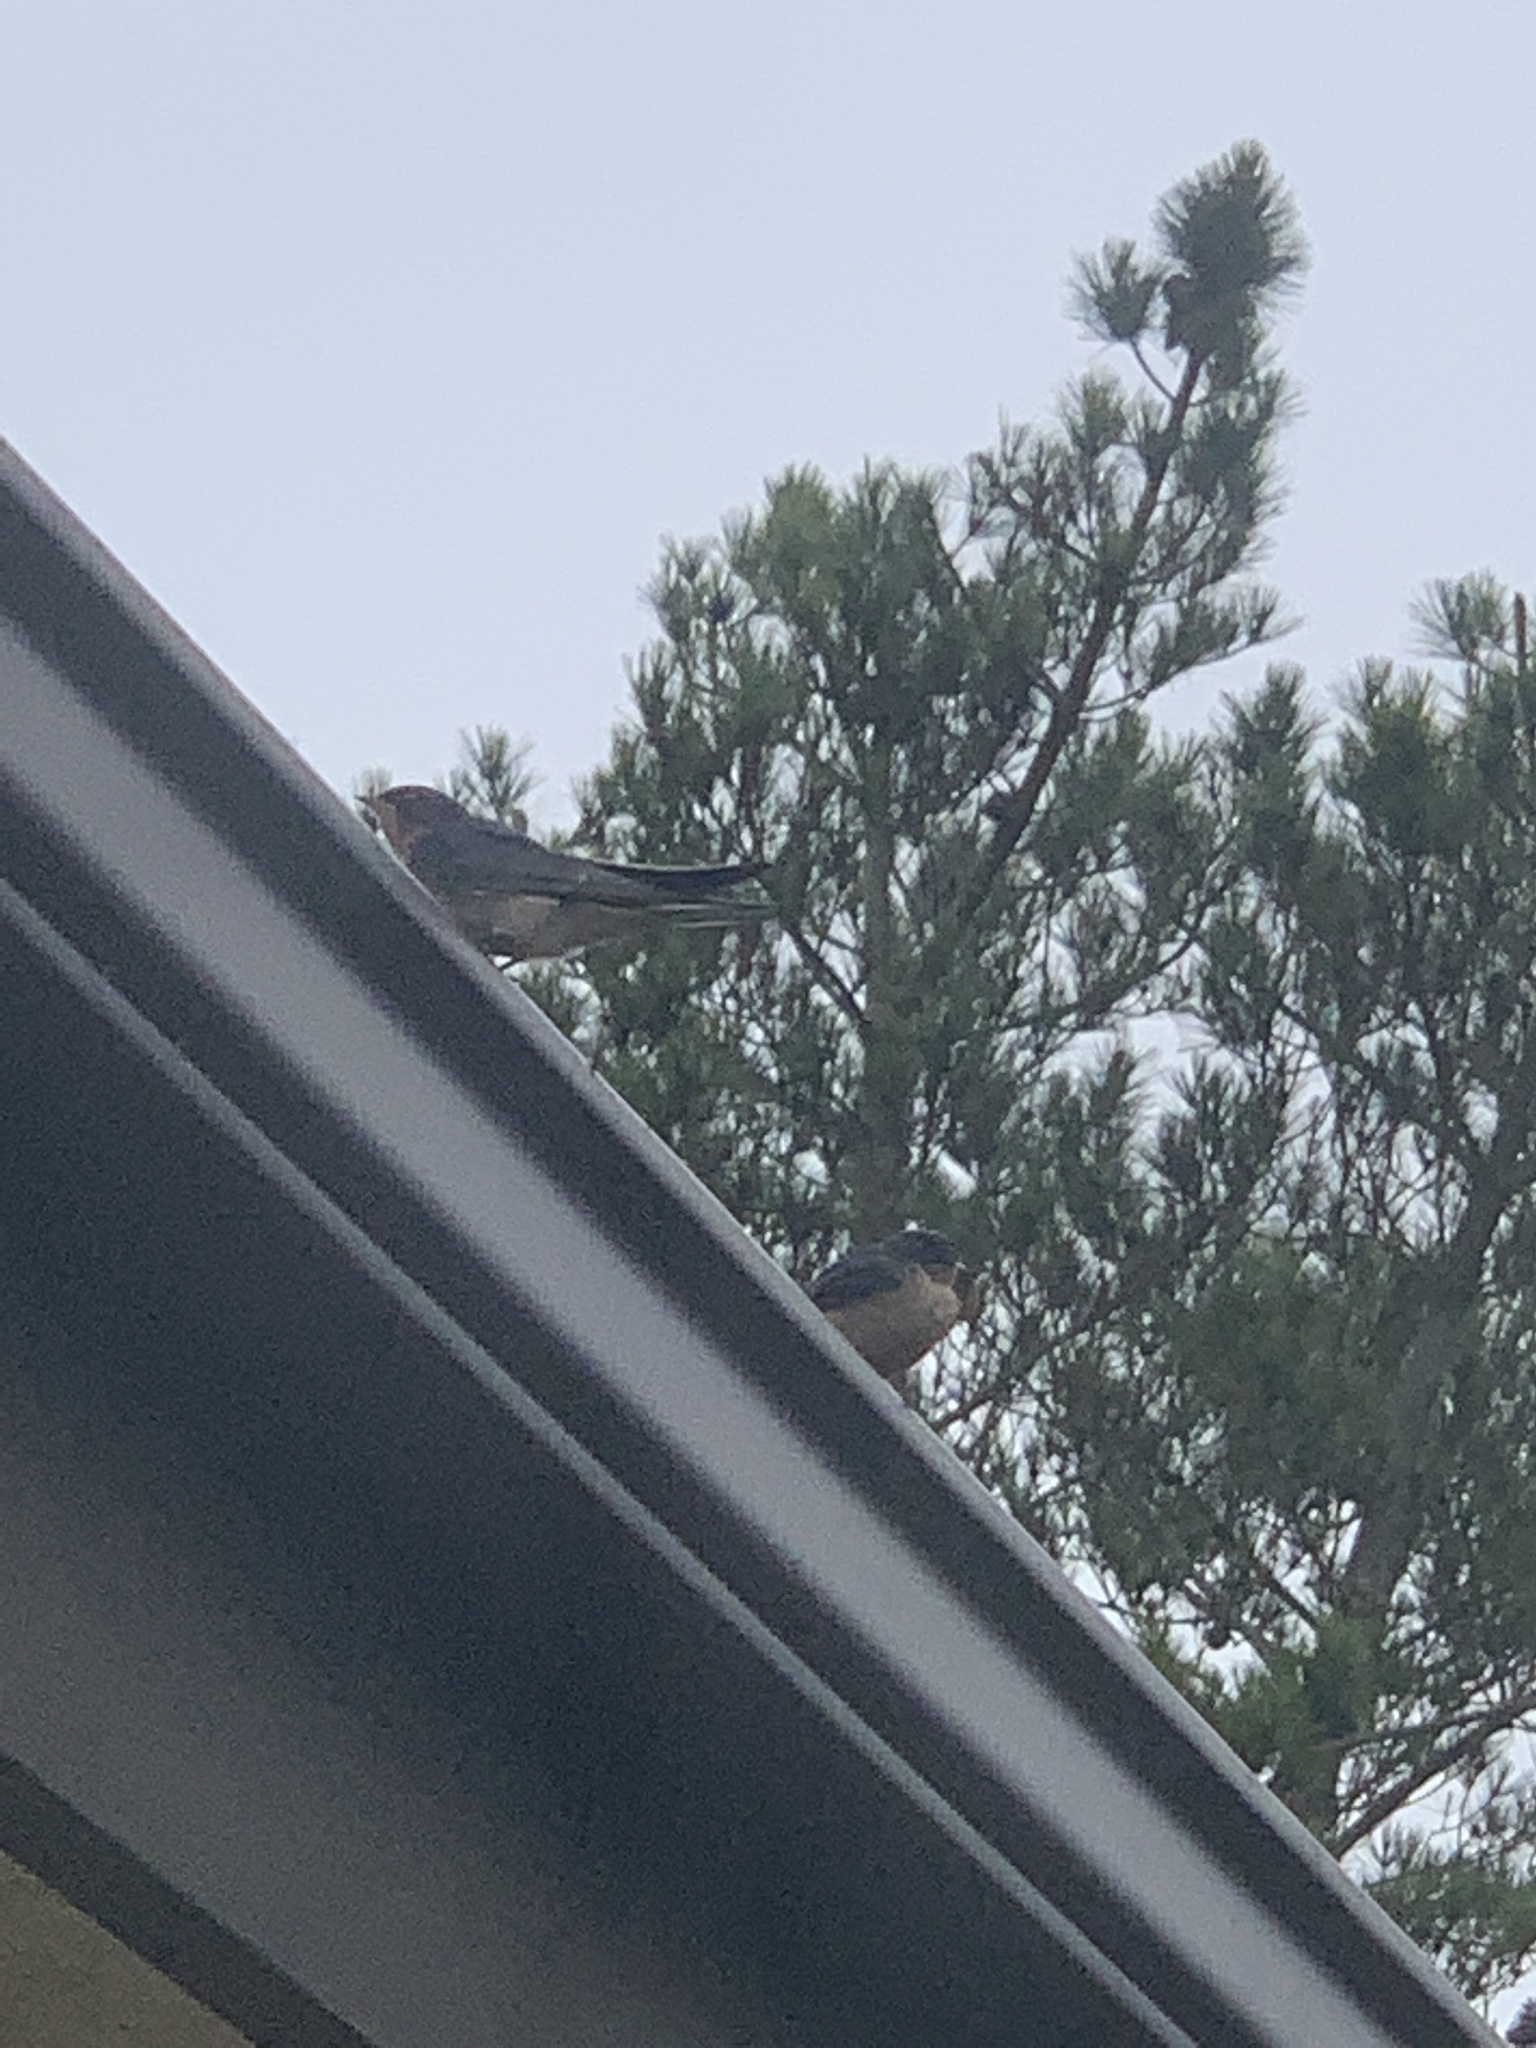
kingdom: Animalia
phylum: Chordata
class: Aves
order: Passeriformes
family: Hirundinidae
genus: Hirundo
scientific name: Hirundo rustica
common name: Barn swallow
